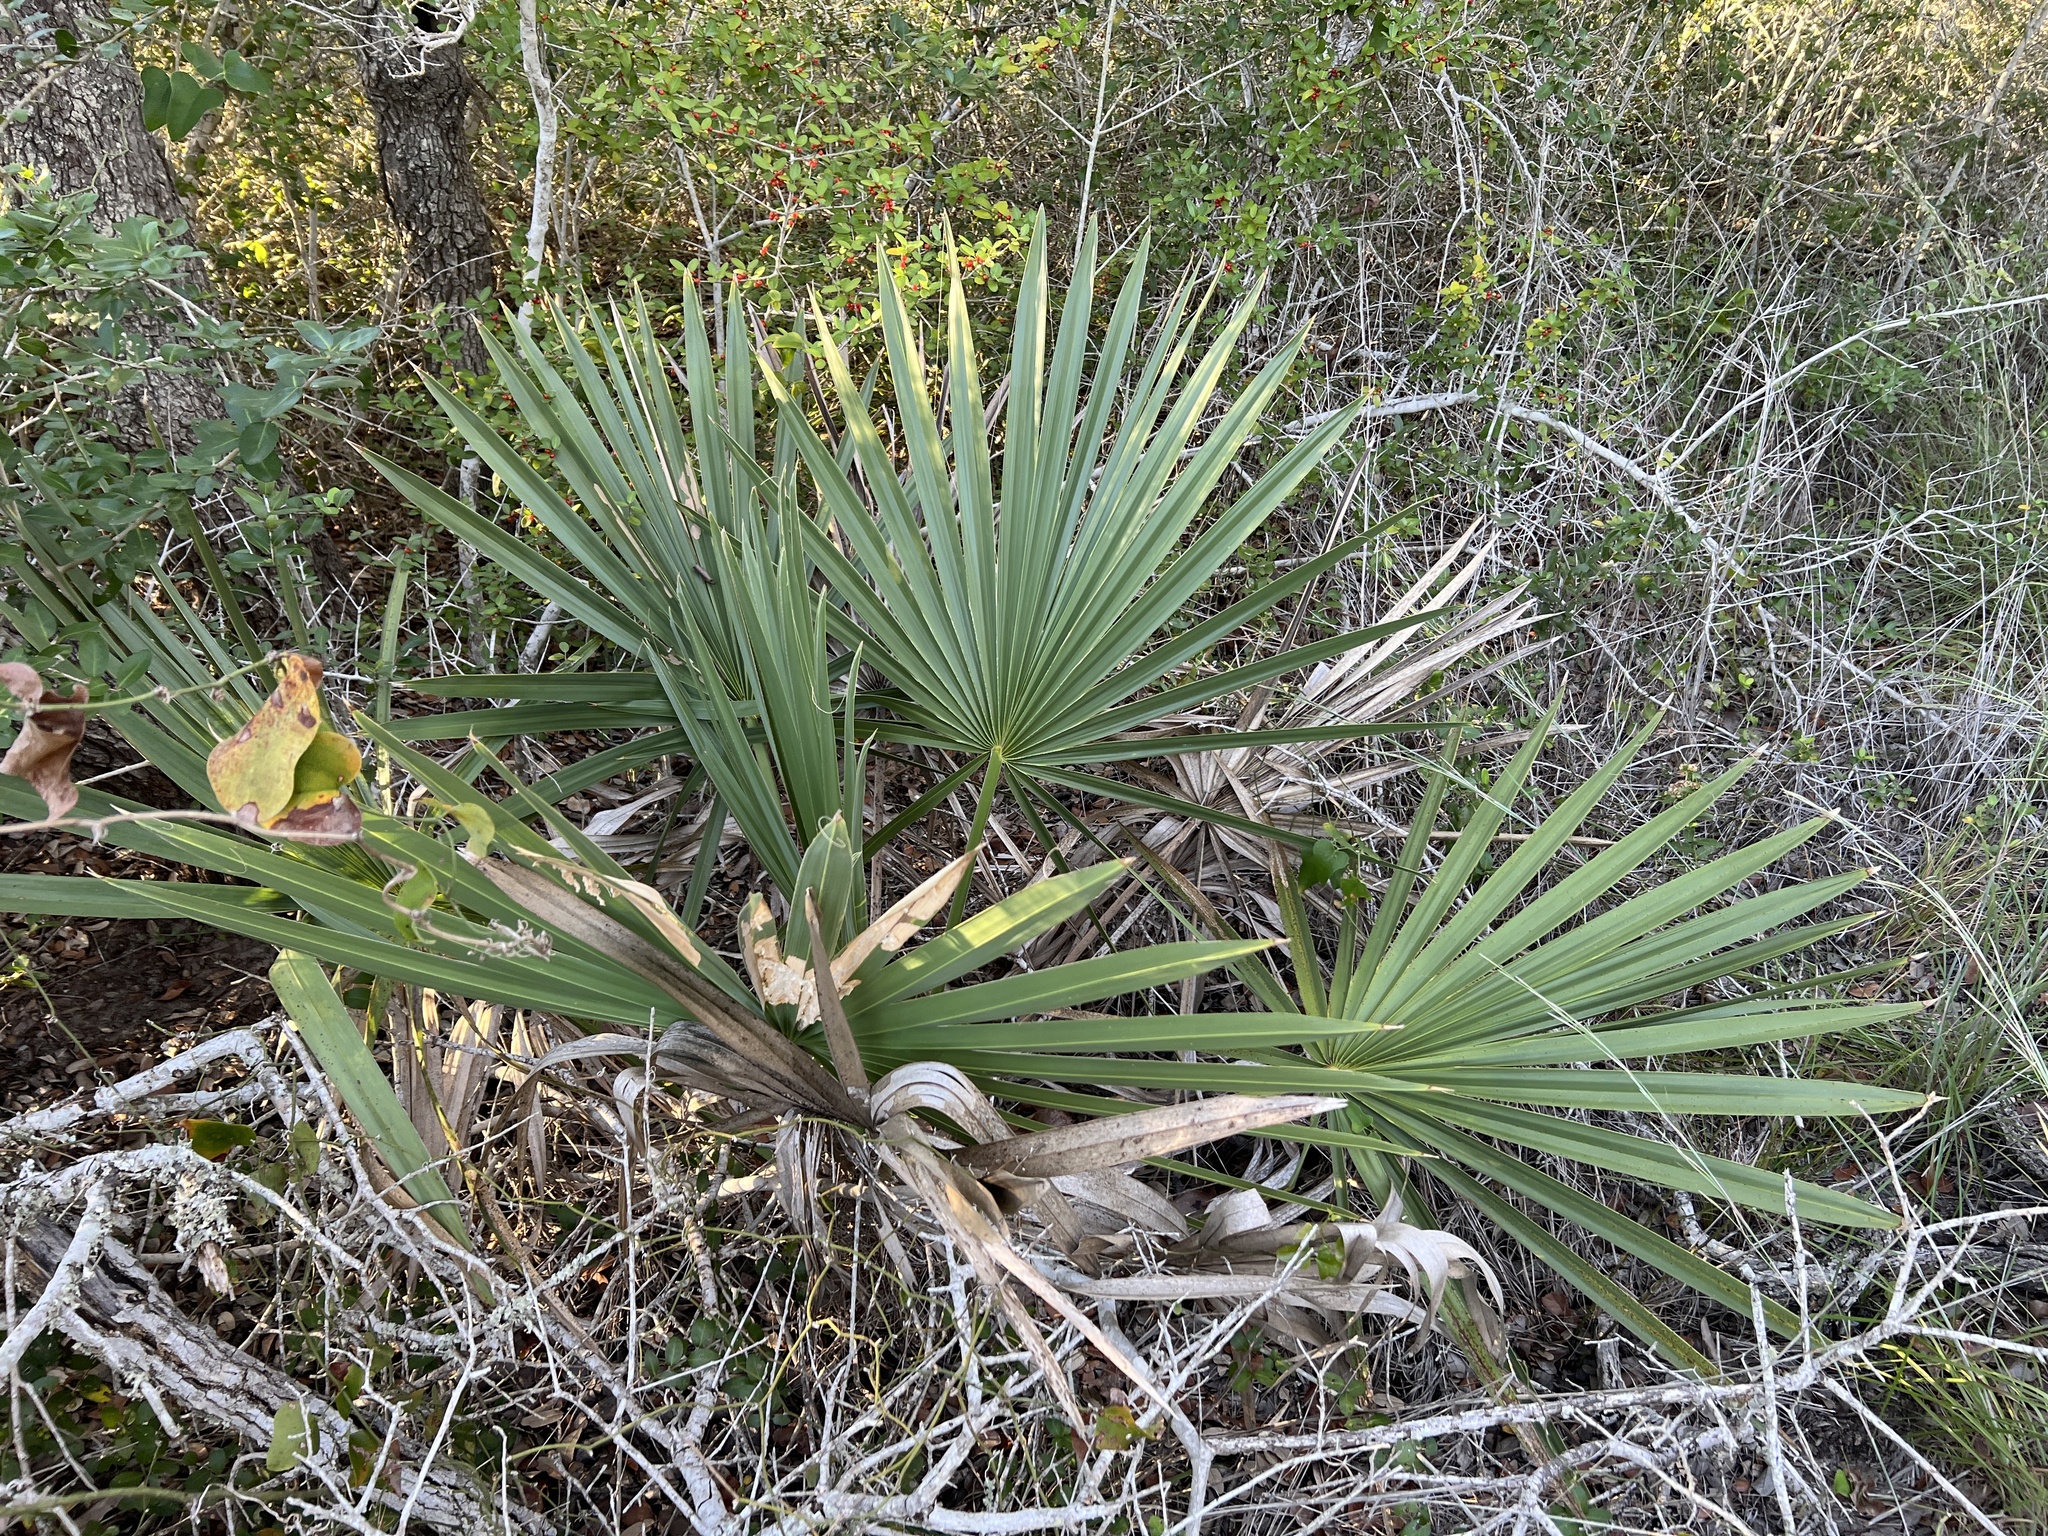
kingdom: Plantae
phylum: Tracheophyta
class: Liliopsida
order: Arecales
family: Arecaceae
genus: Sabal
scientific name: Sabal minor
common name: Dwarf palmetto
